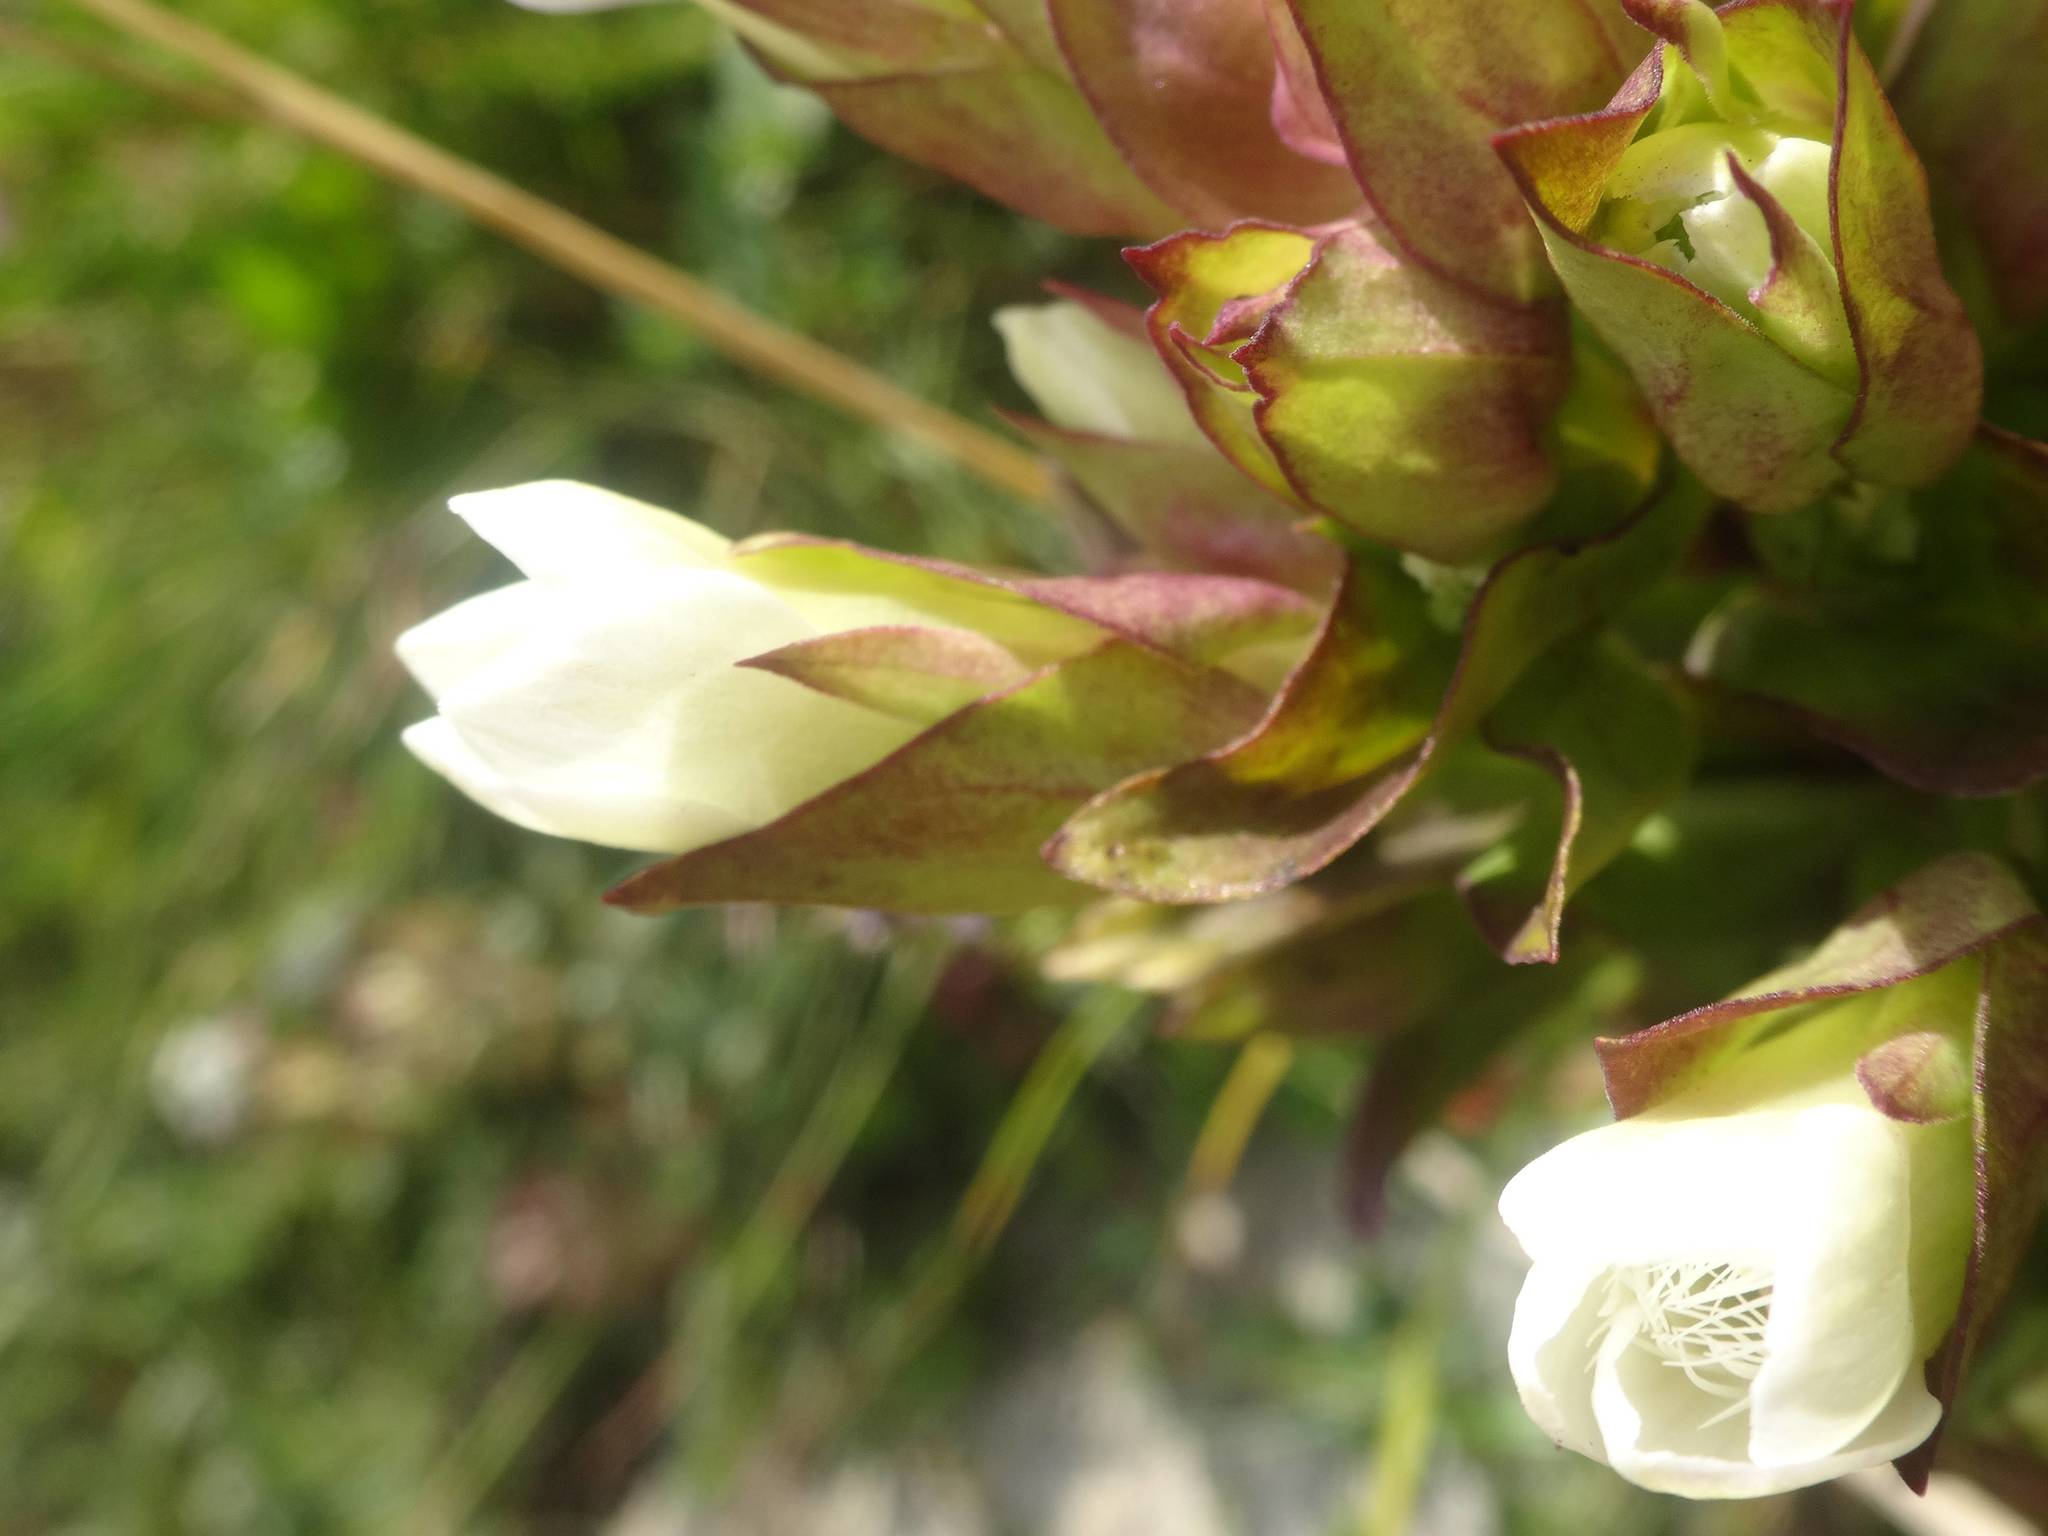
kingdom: Plantae
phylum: Tracheophyta
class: Magnoliopsida
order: Gentianales
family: Gentianaceae
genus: Gentianella
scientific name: Gentianella campestris
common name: Field gentian
